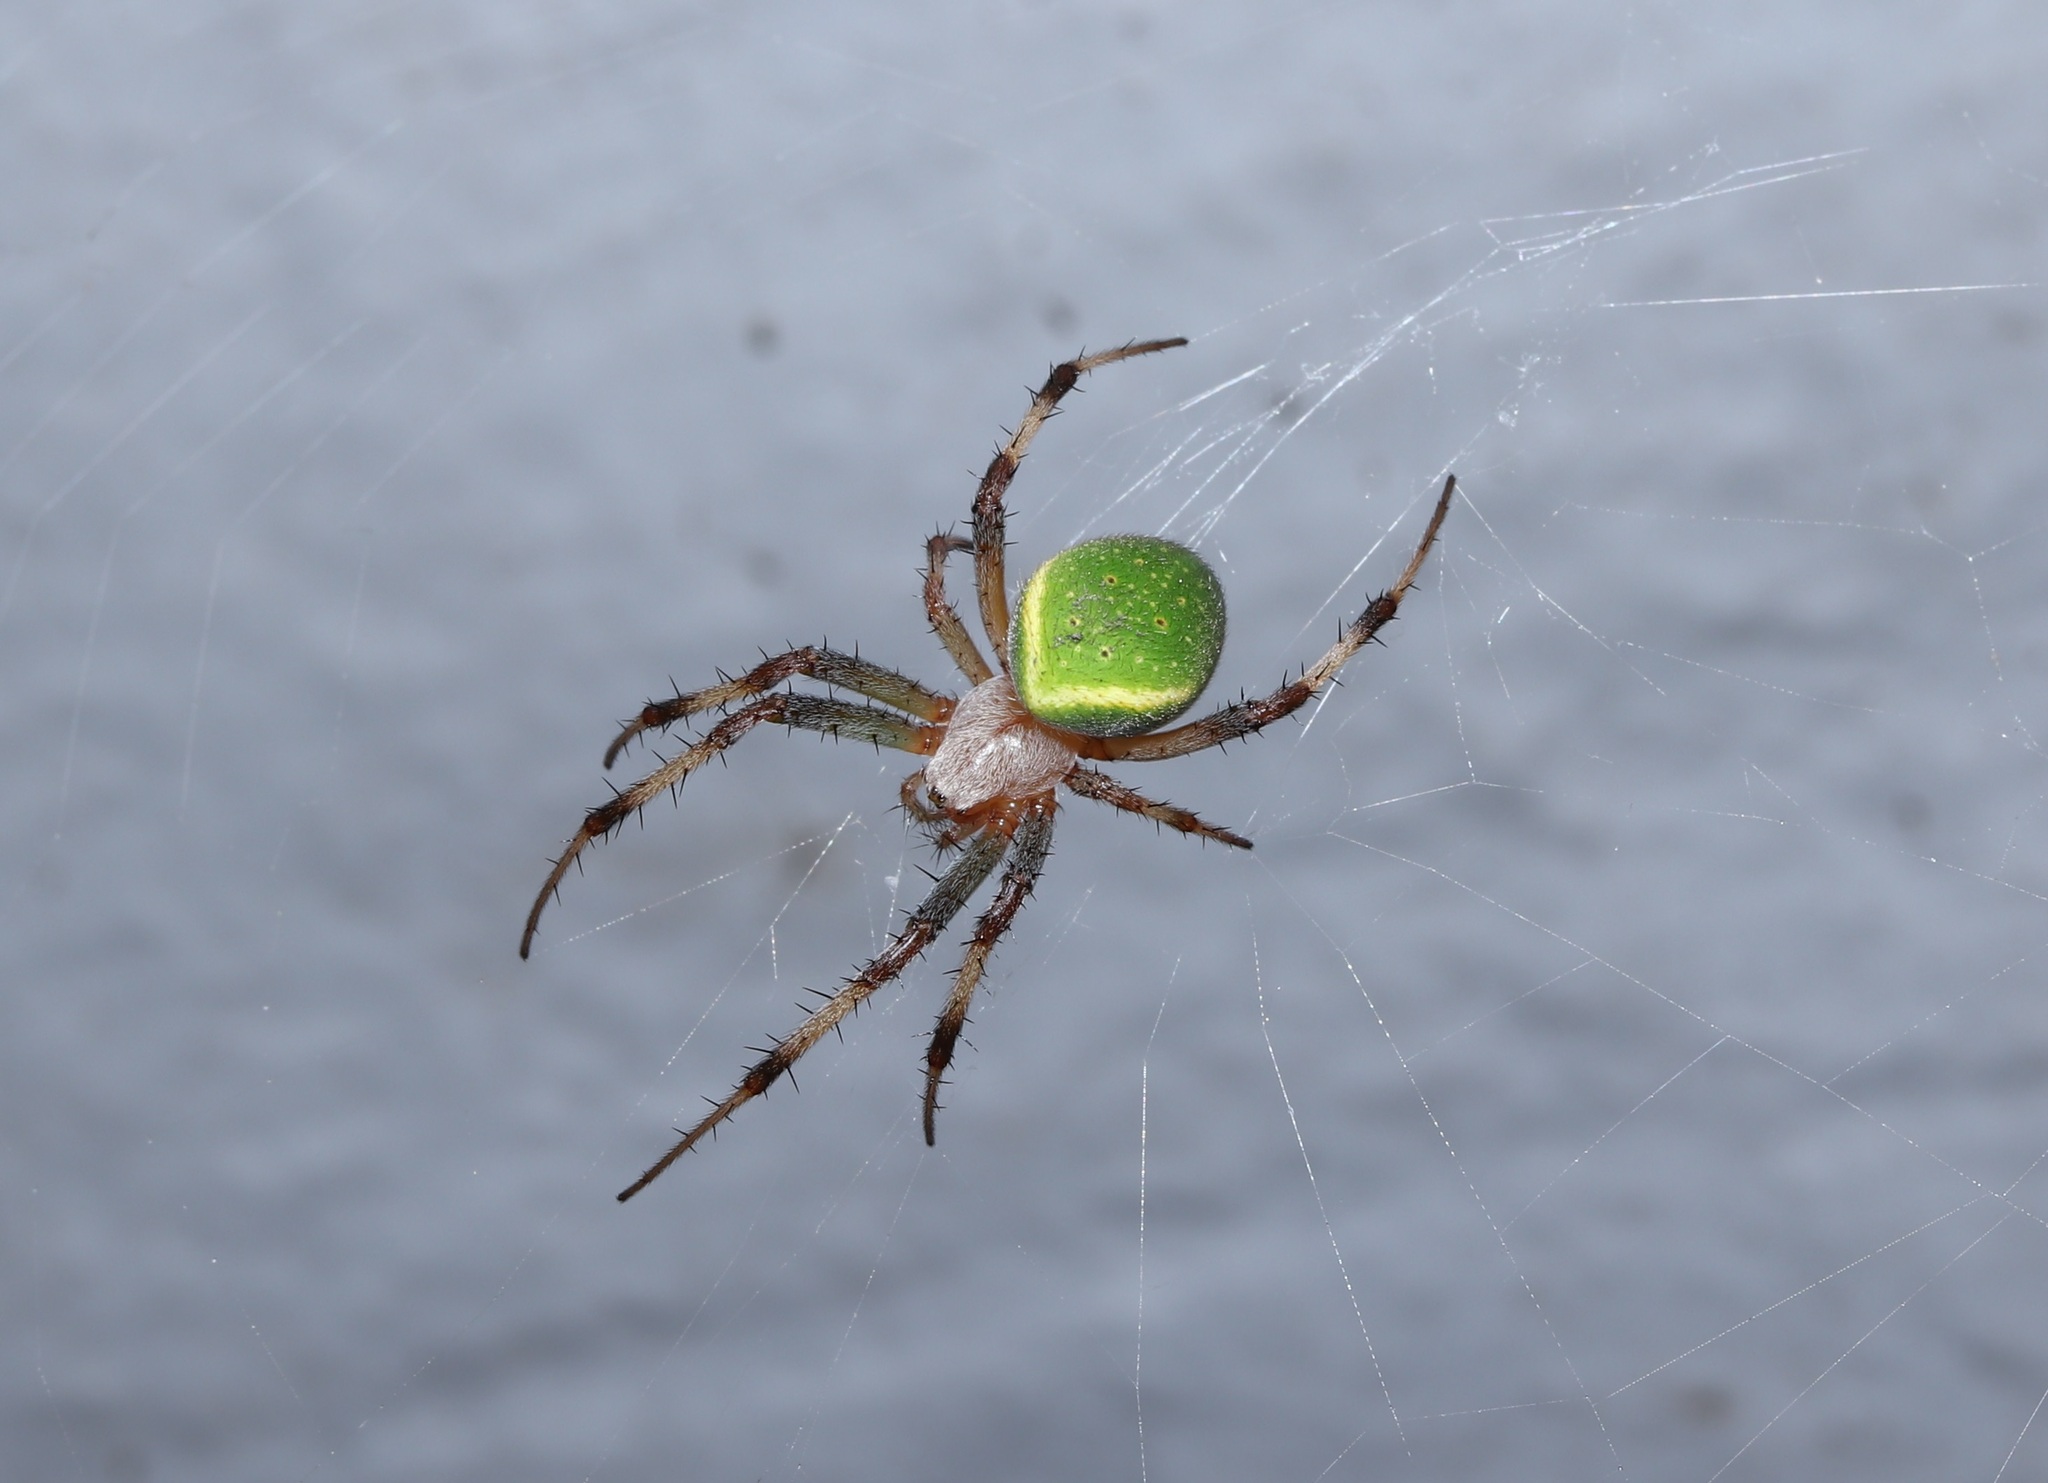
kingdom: Animalia
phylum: Arthropoda
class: Arachnida
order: Araneae
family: Araneidae
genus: Neoscona
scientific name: Neoscona scylloides
